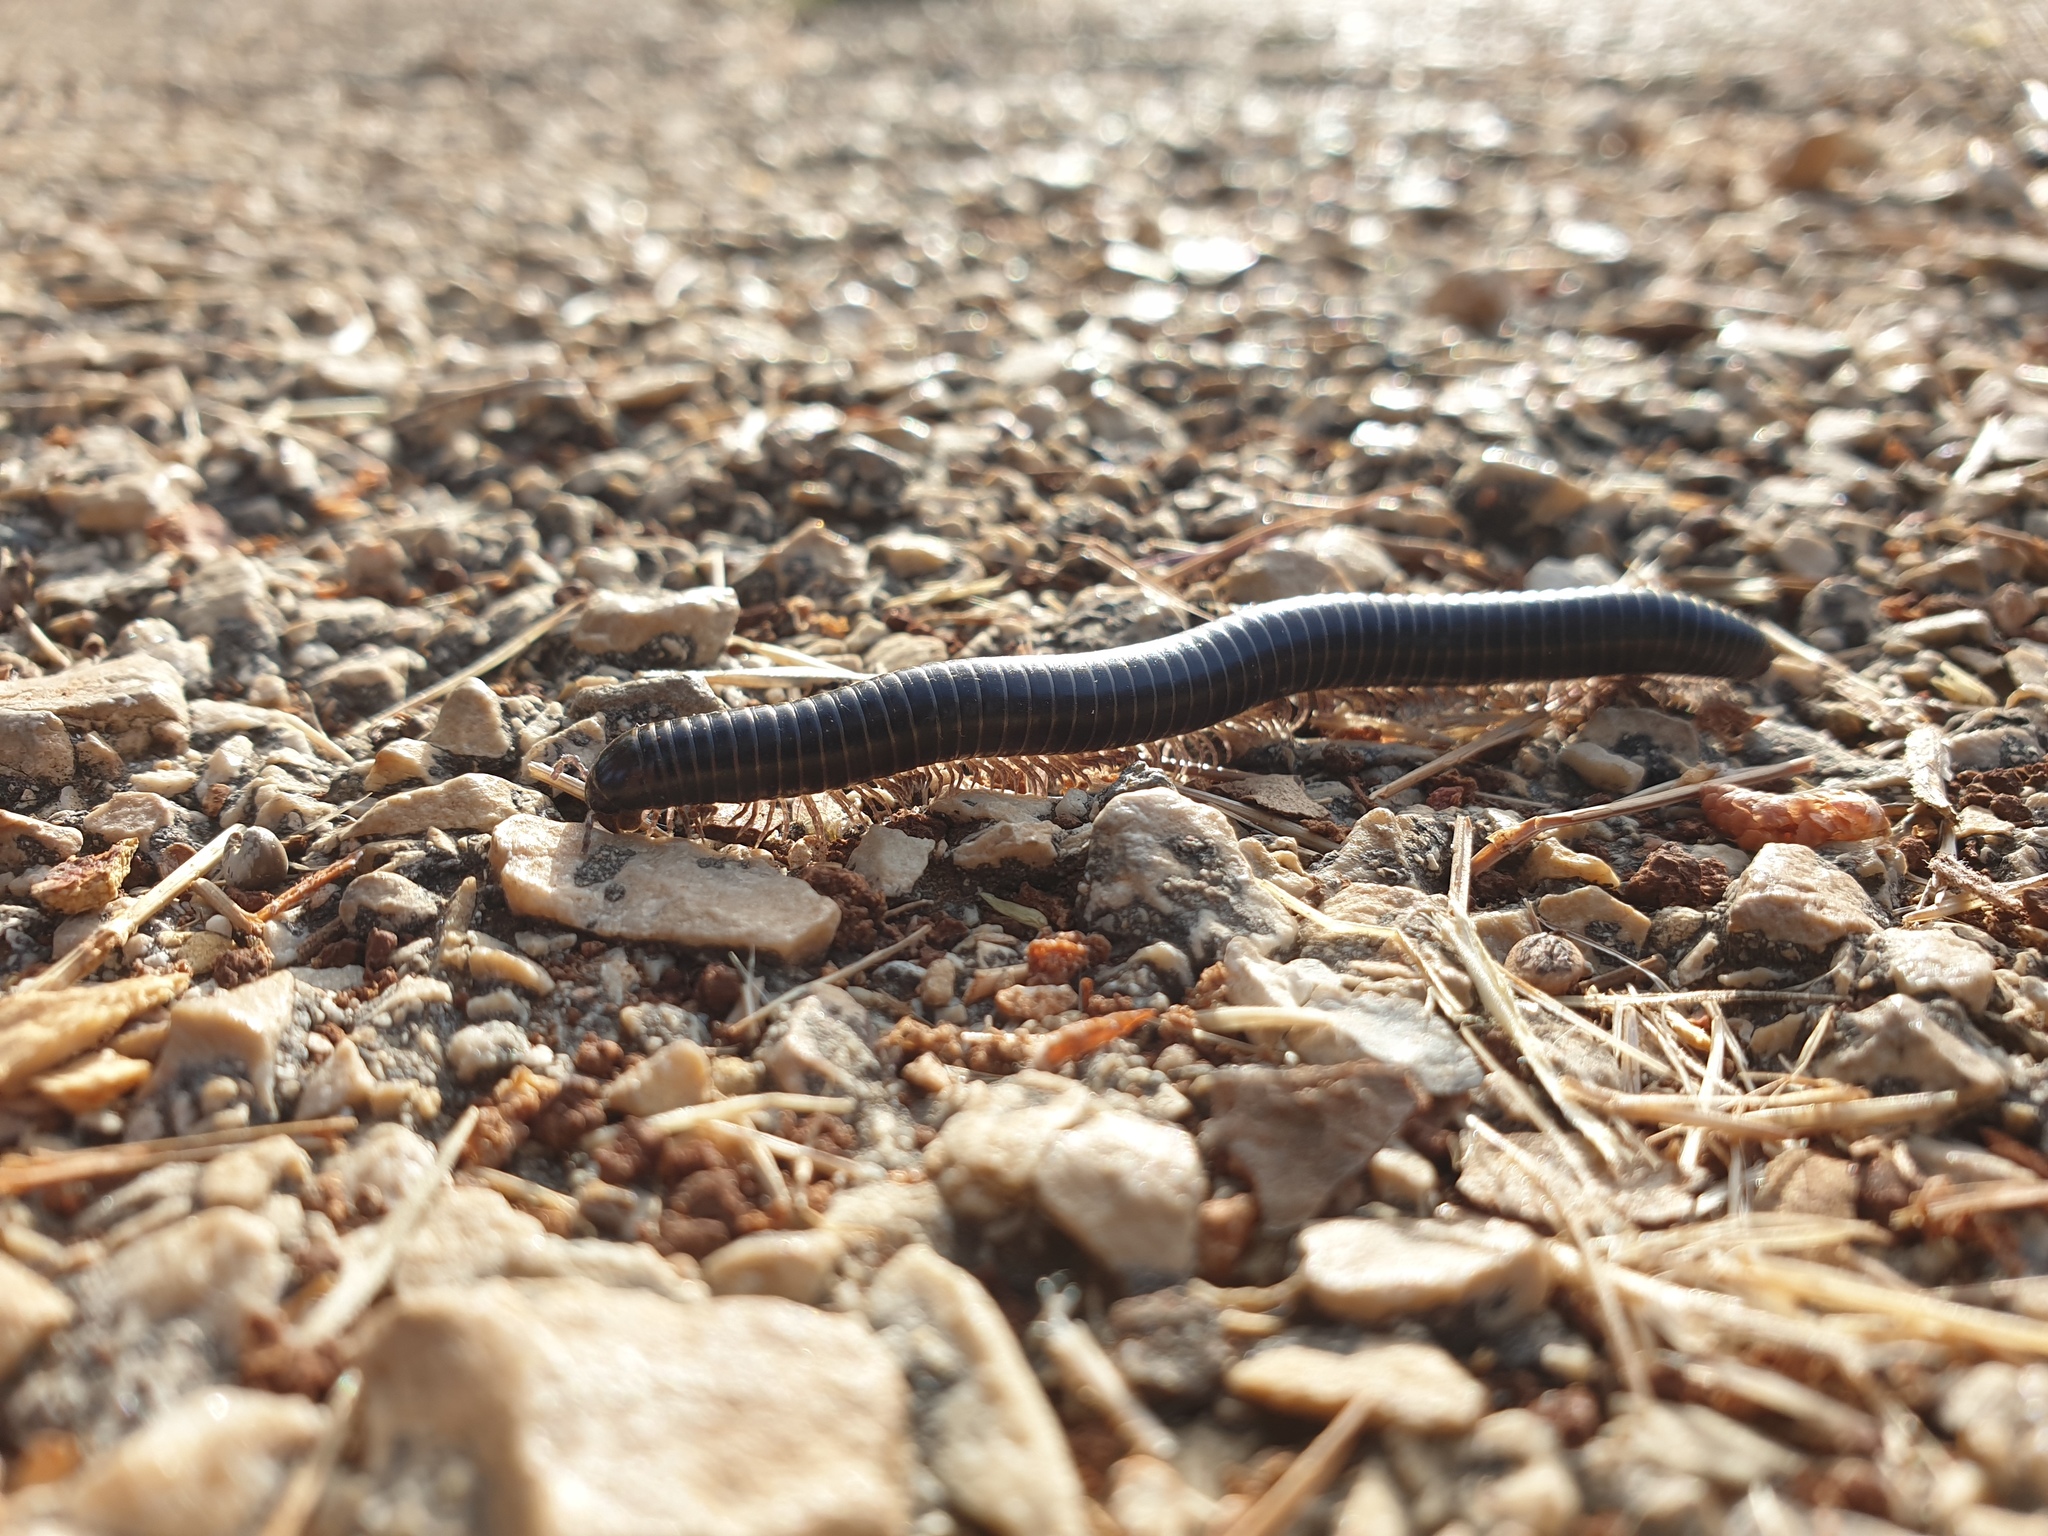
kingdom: Animalia
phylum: Arthropoda
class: Diplopoda
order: Spirostreptida
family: Spirostreptidae
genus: Archispirostreptus
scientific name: Archispirostreptus syriacus
